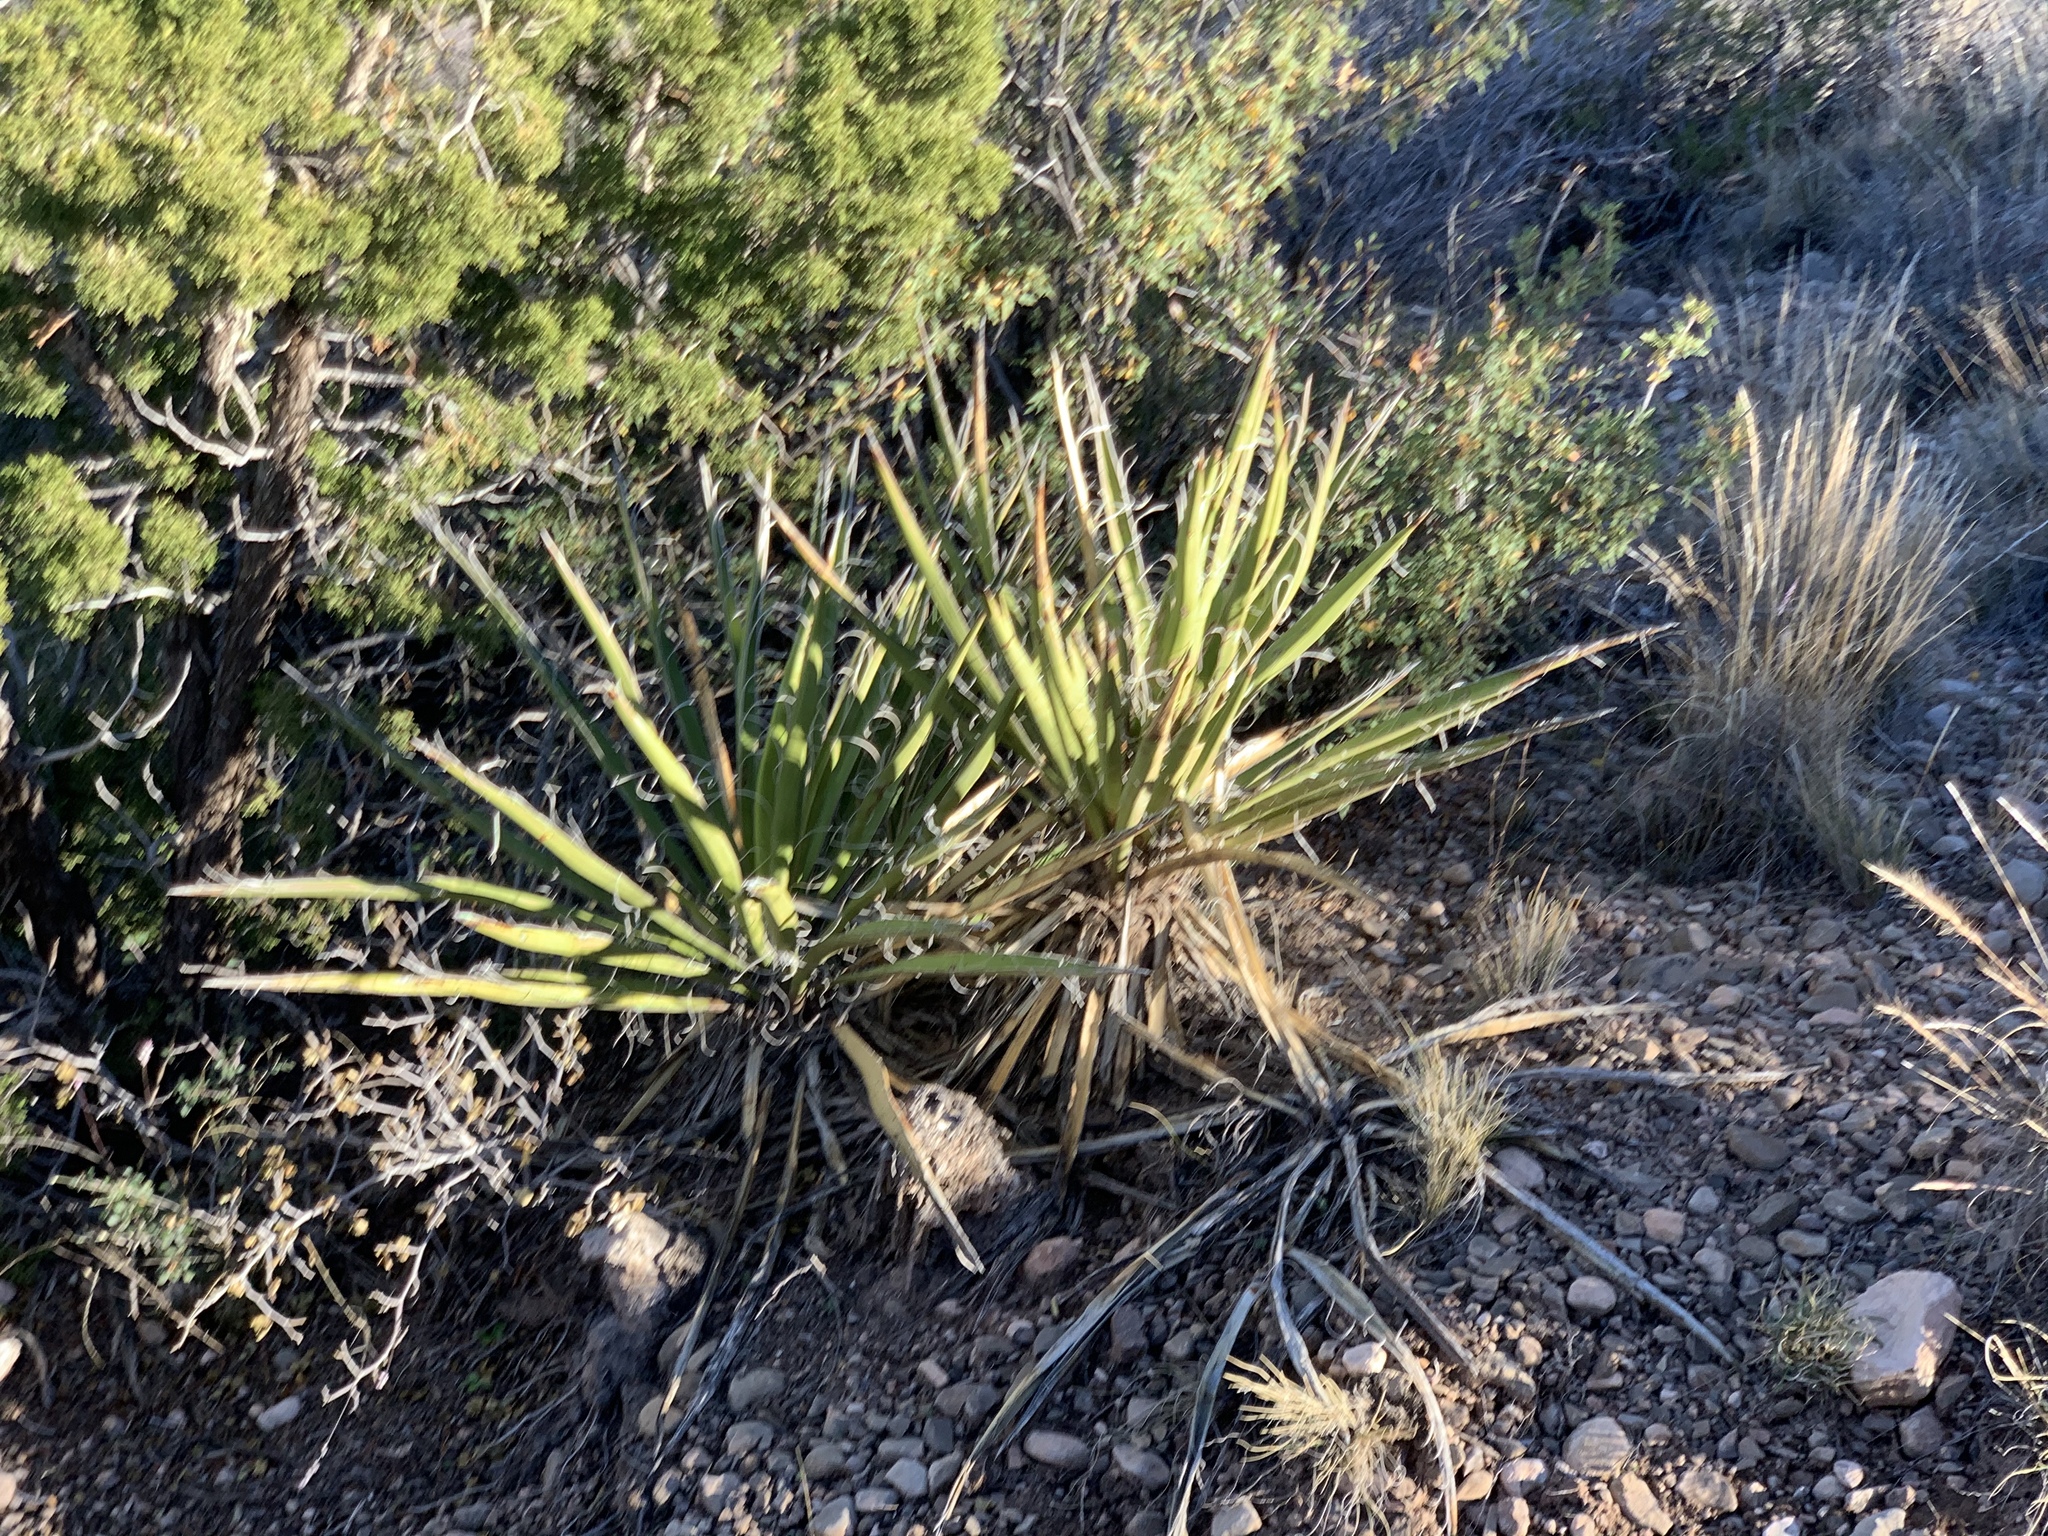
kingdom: Plantae
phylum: Tracheophyta
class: Liliopsida
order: Asparagales
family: Asparagaceae
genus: Yucca
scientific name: Yucca baccata
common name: Banana yucca
